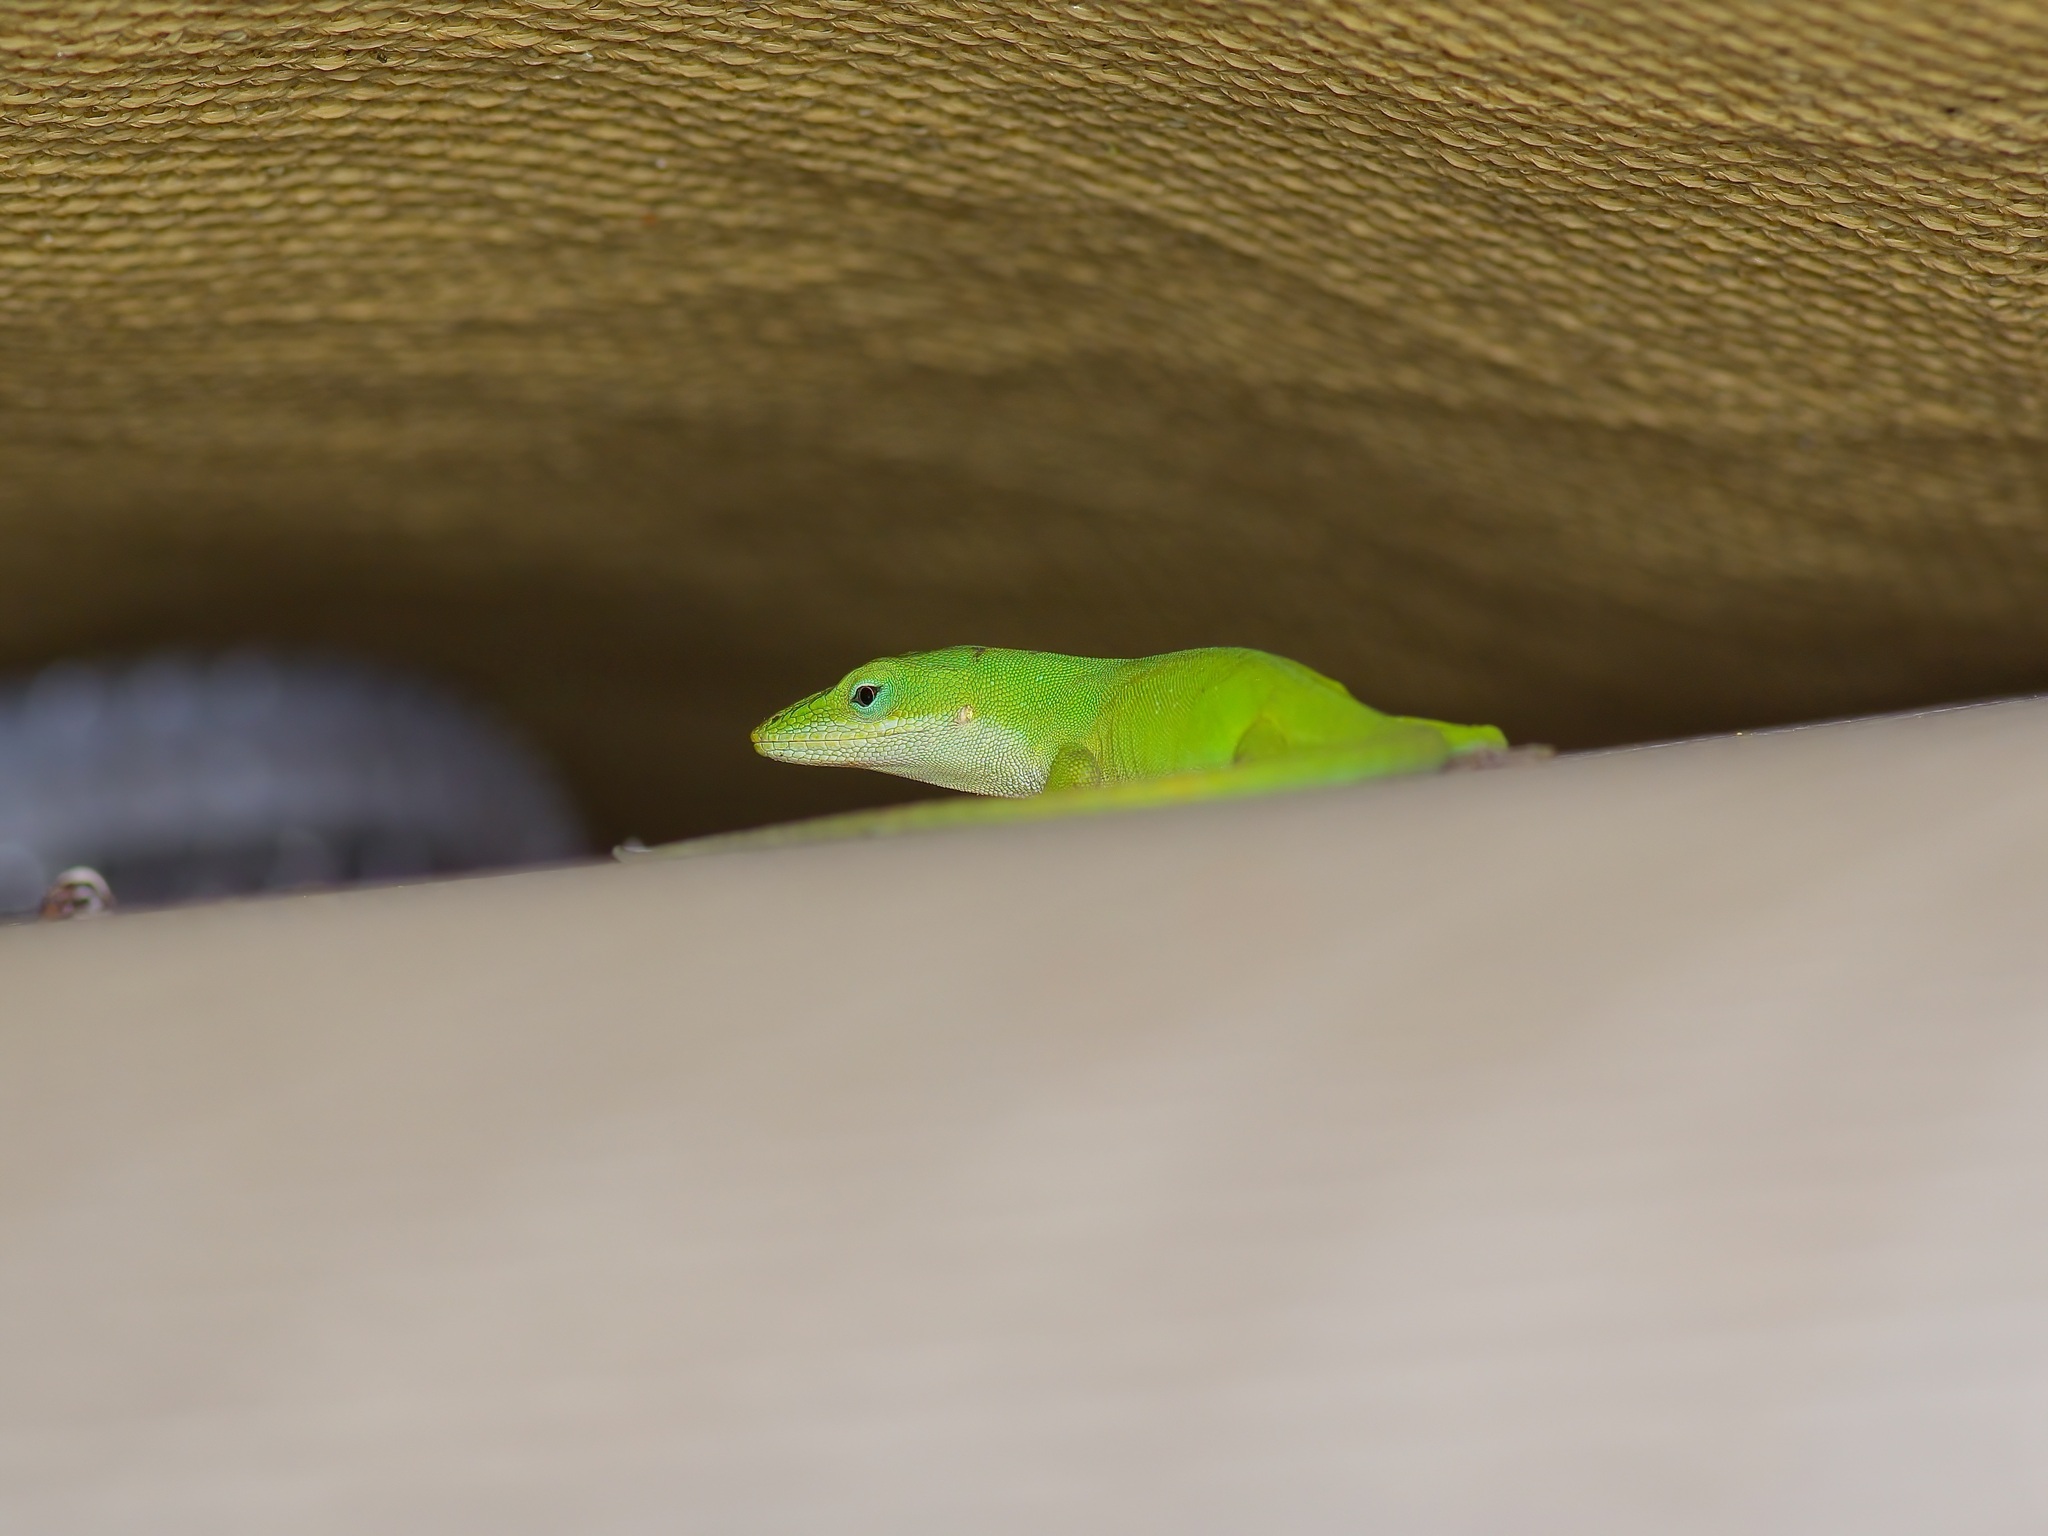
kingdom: Animalia
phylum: Chordata
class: Squamata
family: Dactyloidae
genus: Anolis
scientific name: Anolis carolinensis
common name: Green anole
